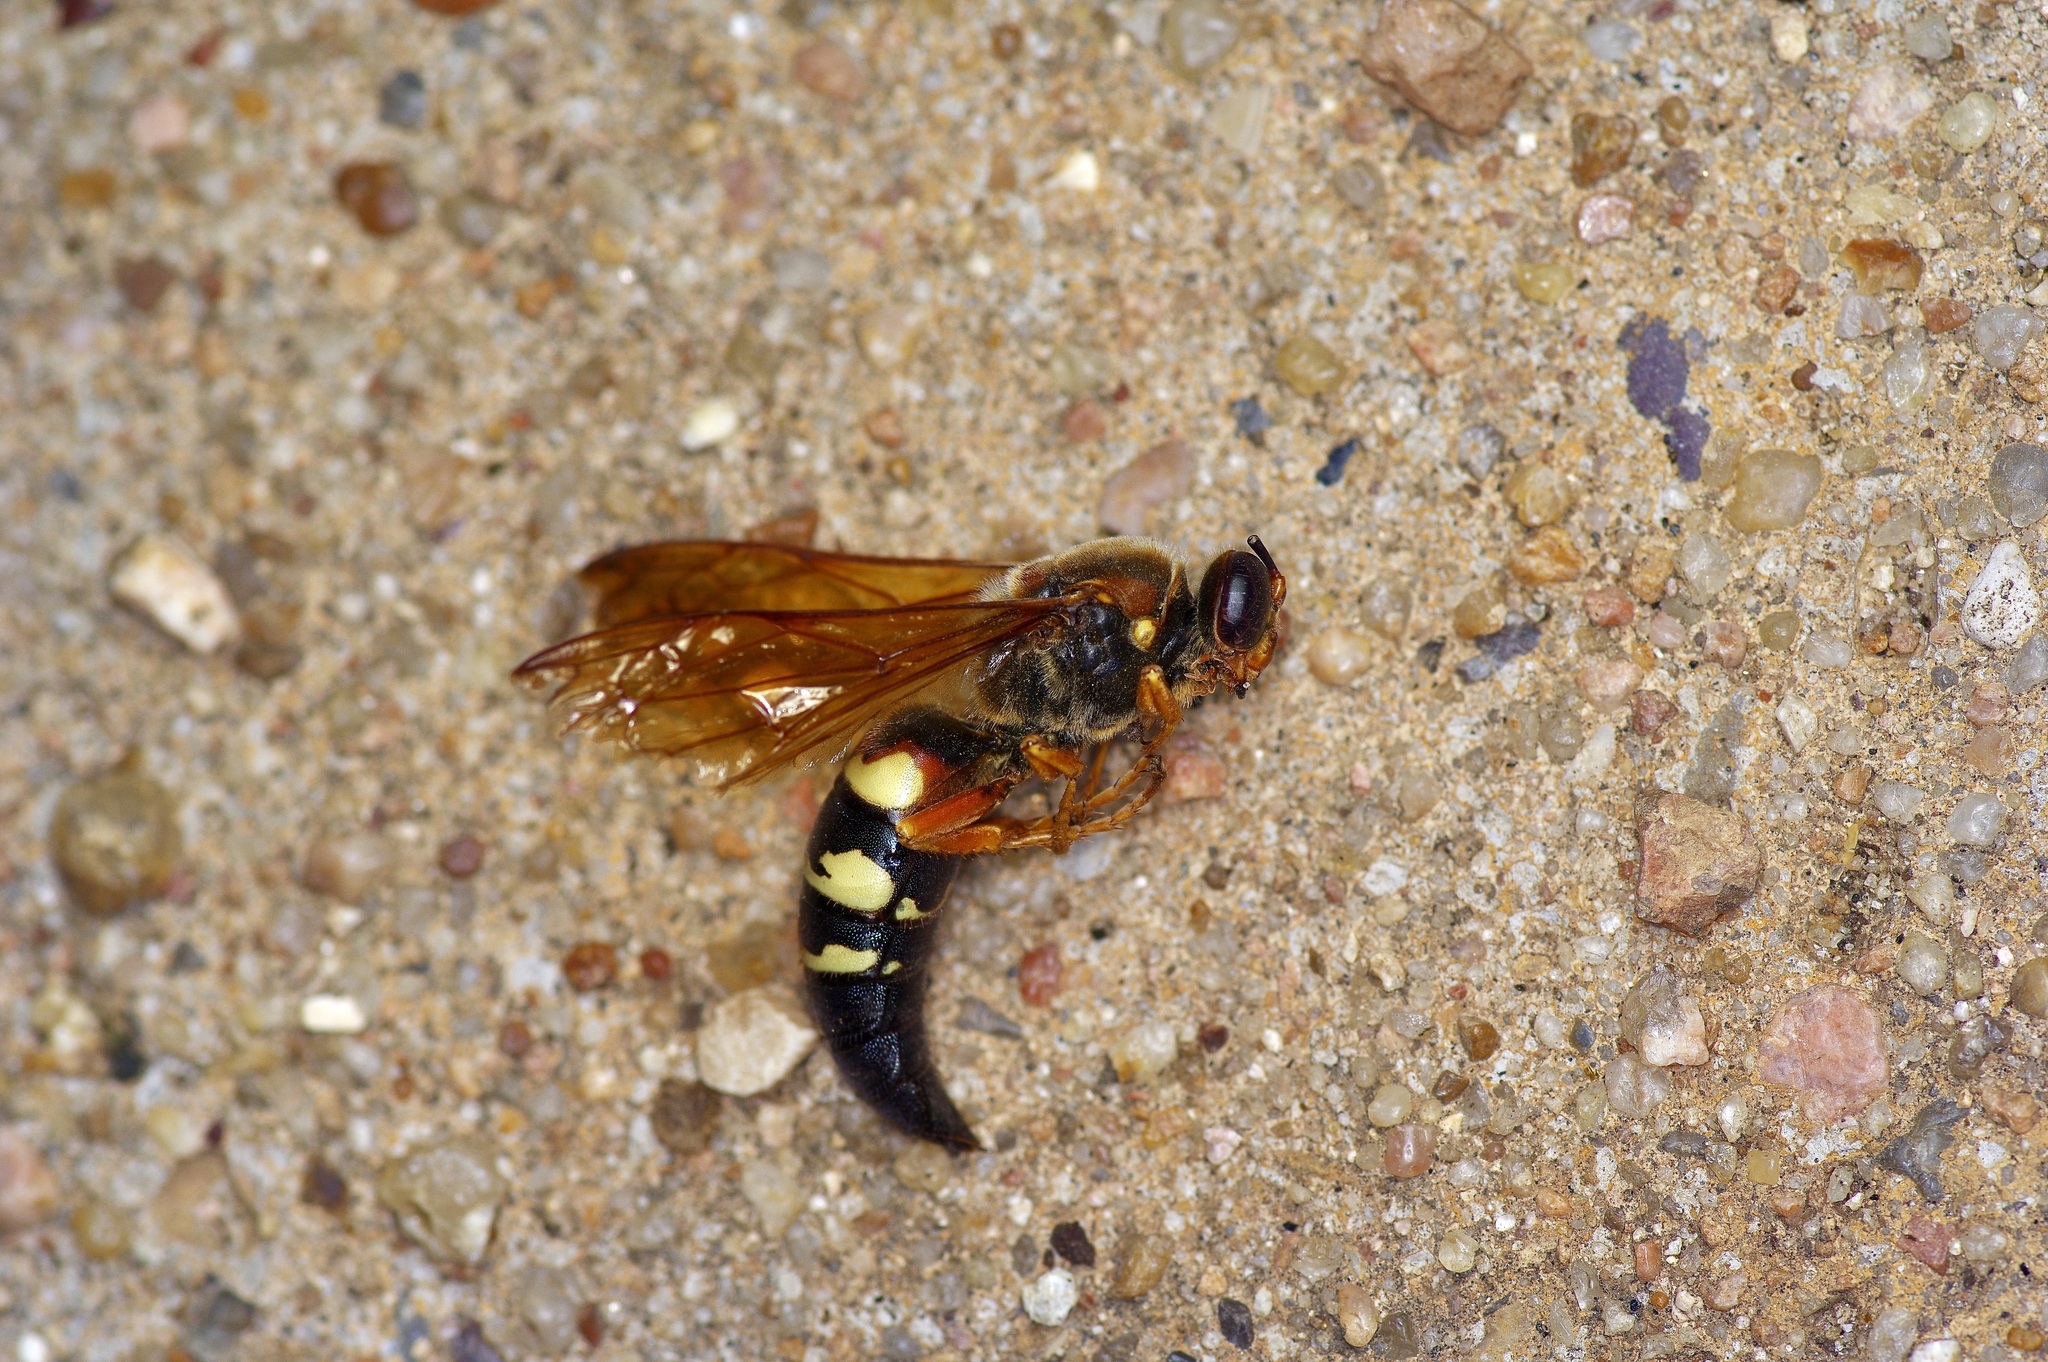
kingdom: Animalia
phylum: Arthropoda
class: Insecta
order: Hymenoptera
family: Crabronidae
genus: Sphecius
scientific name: Sphecius speciosus
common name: Cicada killer
